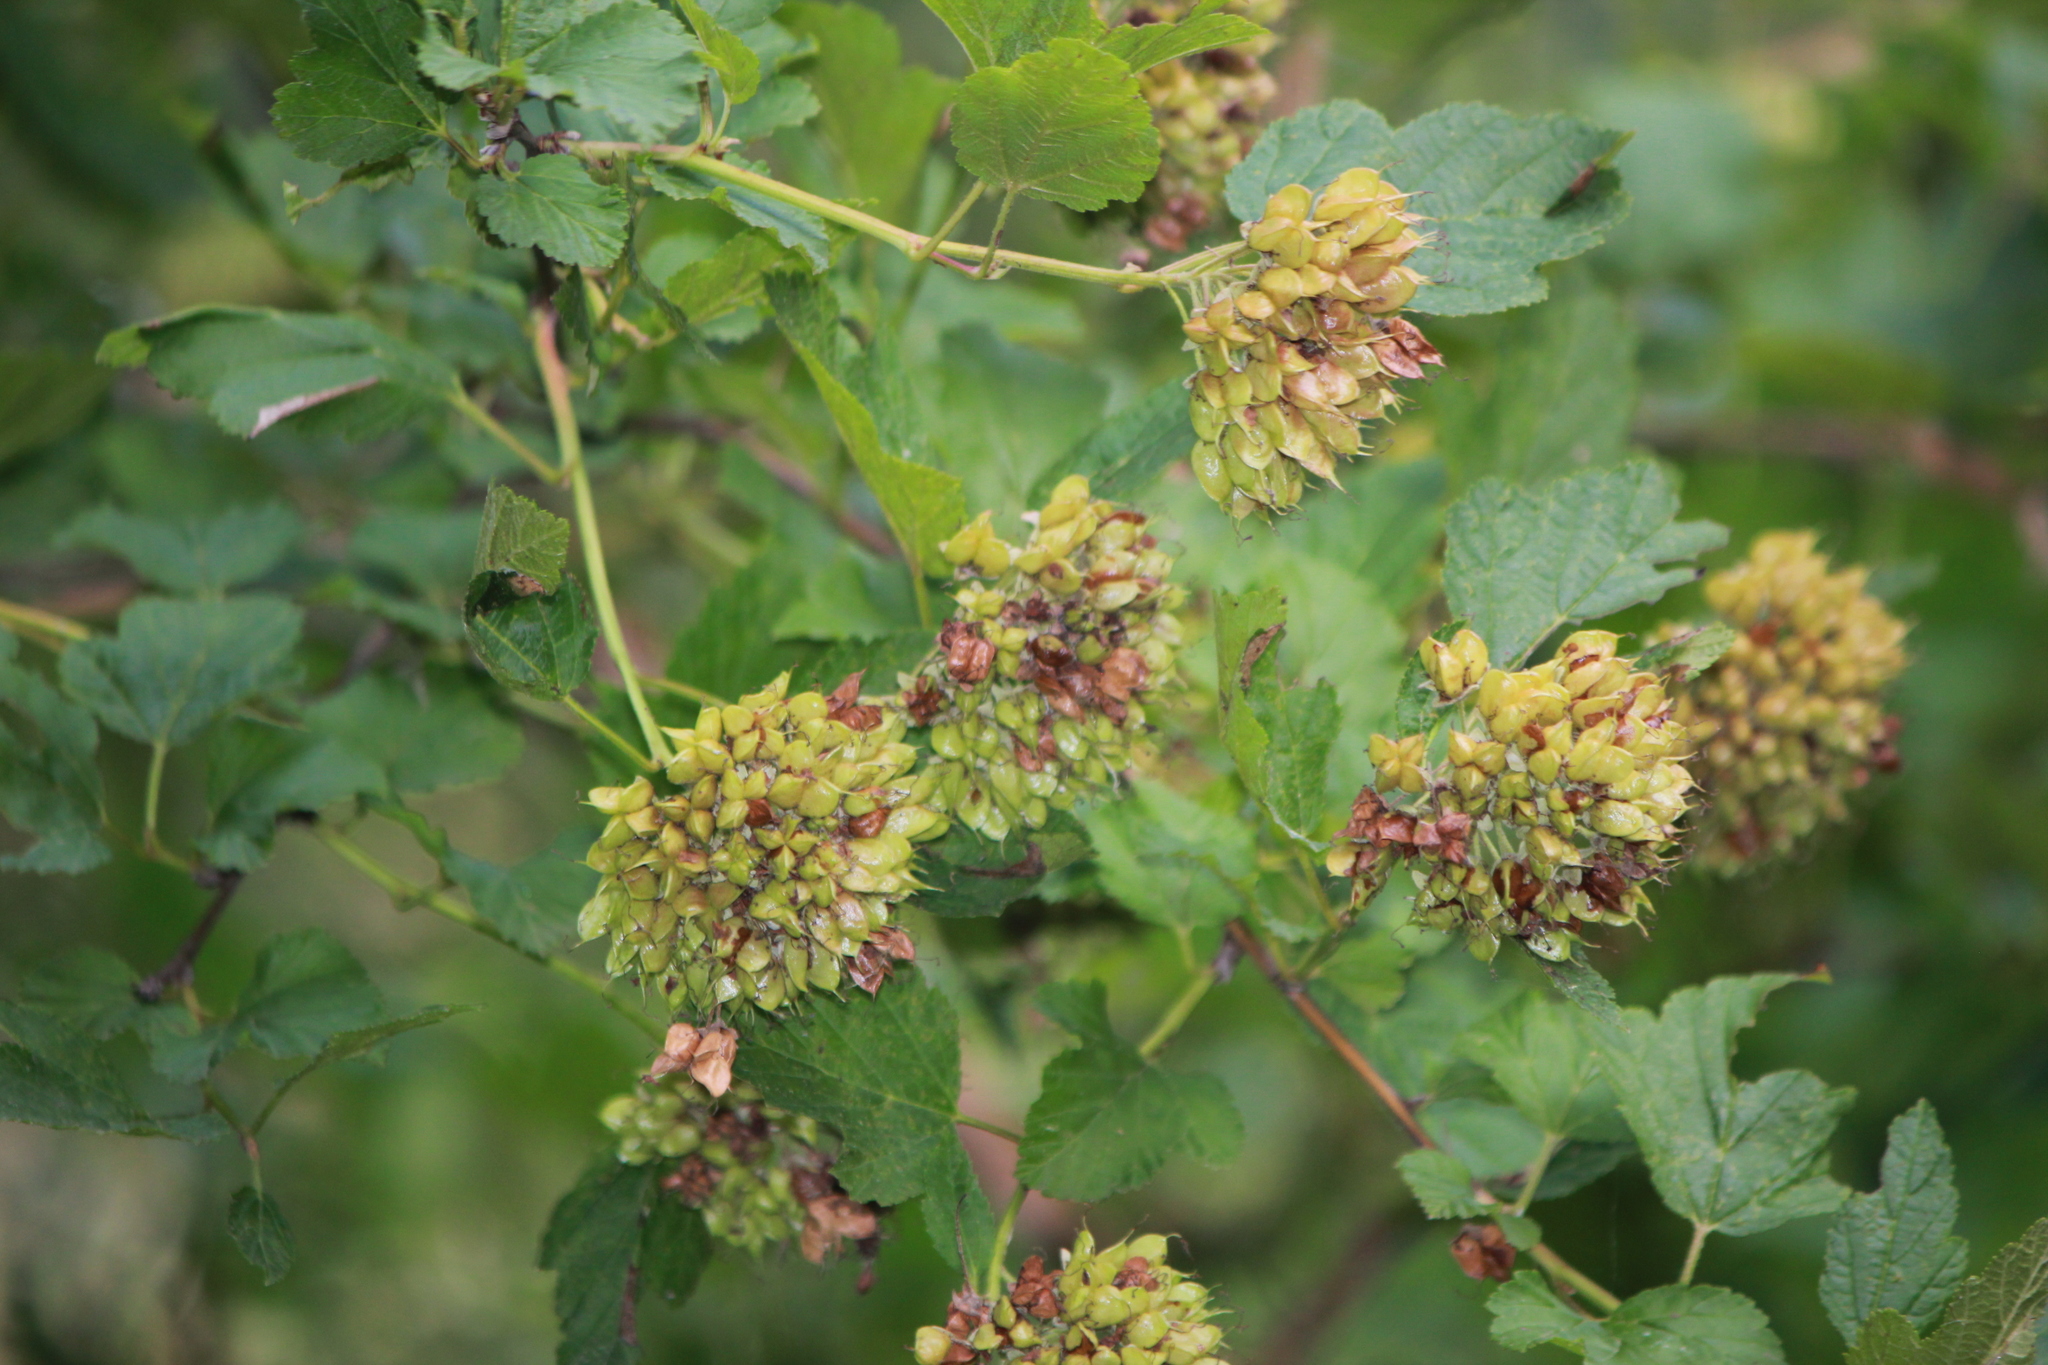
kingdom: Plantae
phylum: Tracheophyta
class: Magnoliopsida
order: Rosales
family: Rosaceae
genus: Physocarpus
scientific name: Physocarpus opulifolius
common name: Ninebark
